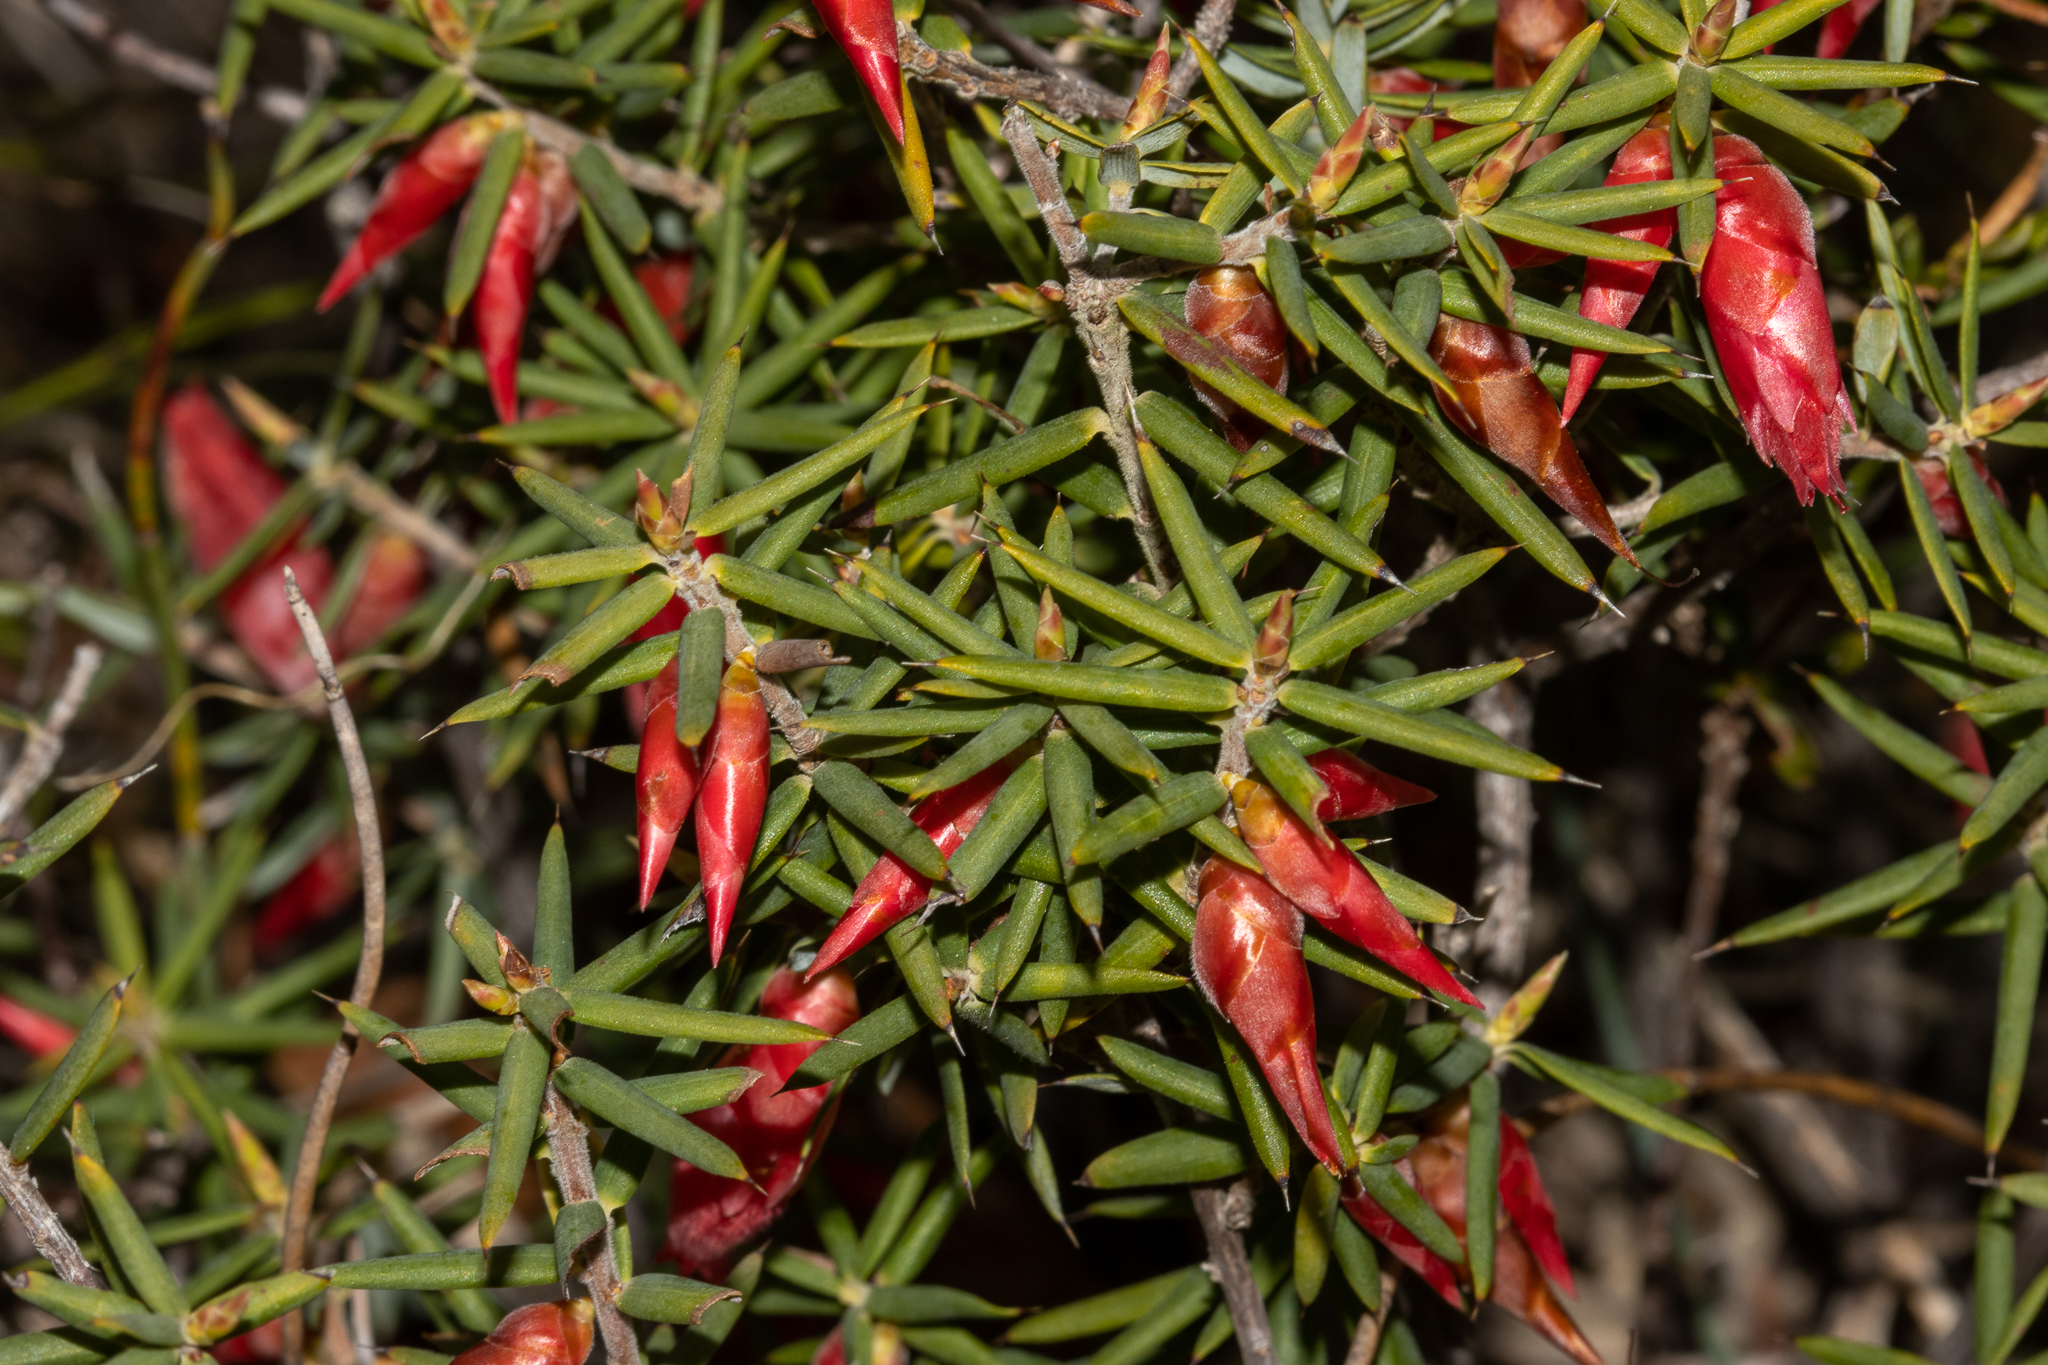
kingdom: Plantae
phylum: Tracheophyta
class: Magnoliopsida
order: Ericales
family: Ericaceae
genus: Stenanthera
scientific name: Stenanthera conostephioides
